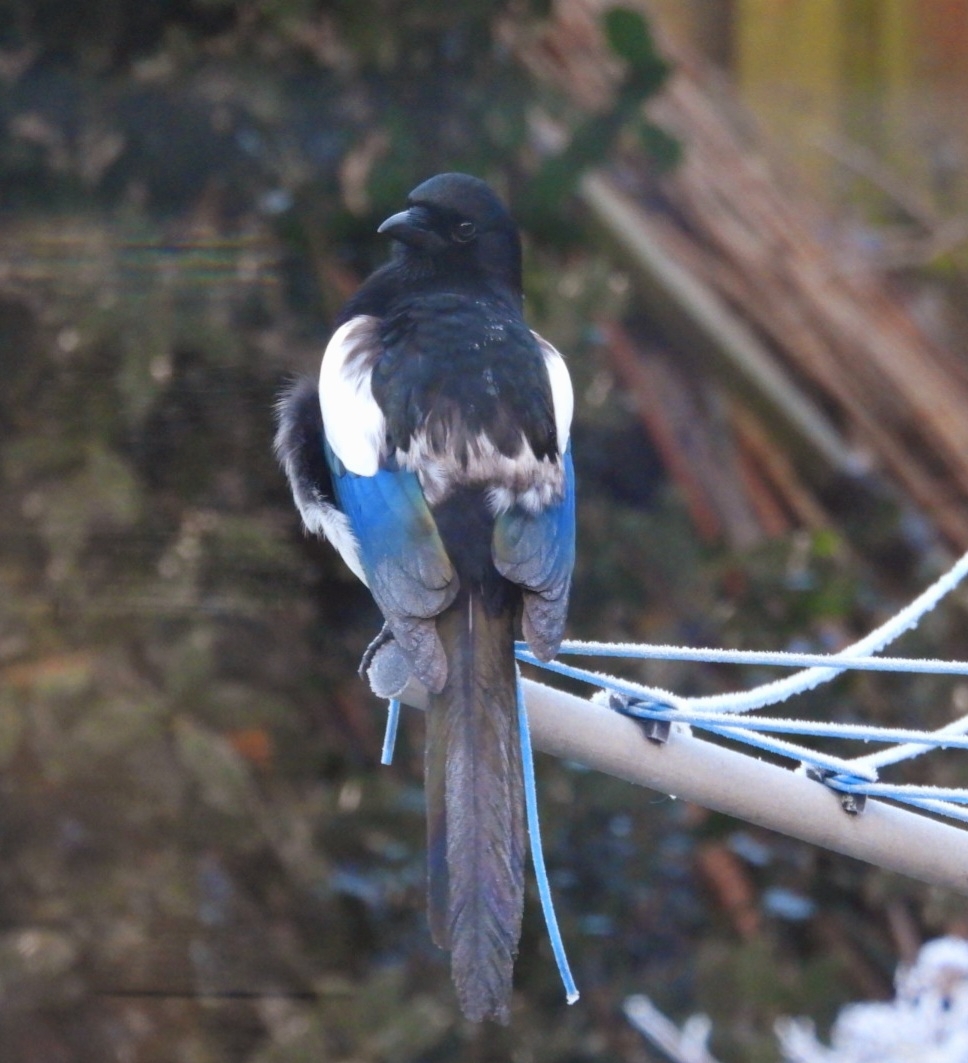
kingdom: Animalia
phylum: Chordata
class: Aves
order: Passeriformes
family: Corvidae
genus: Pica
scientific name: Pica pica
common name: Eurasian magpie
